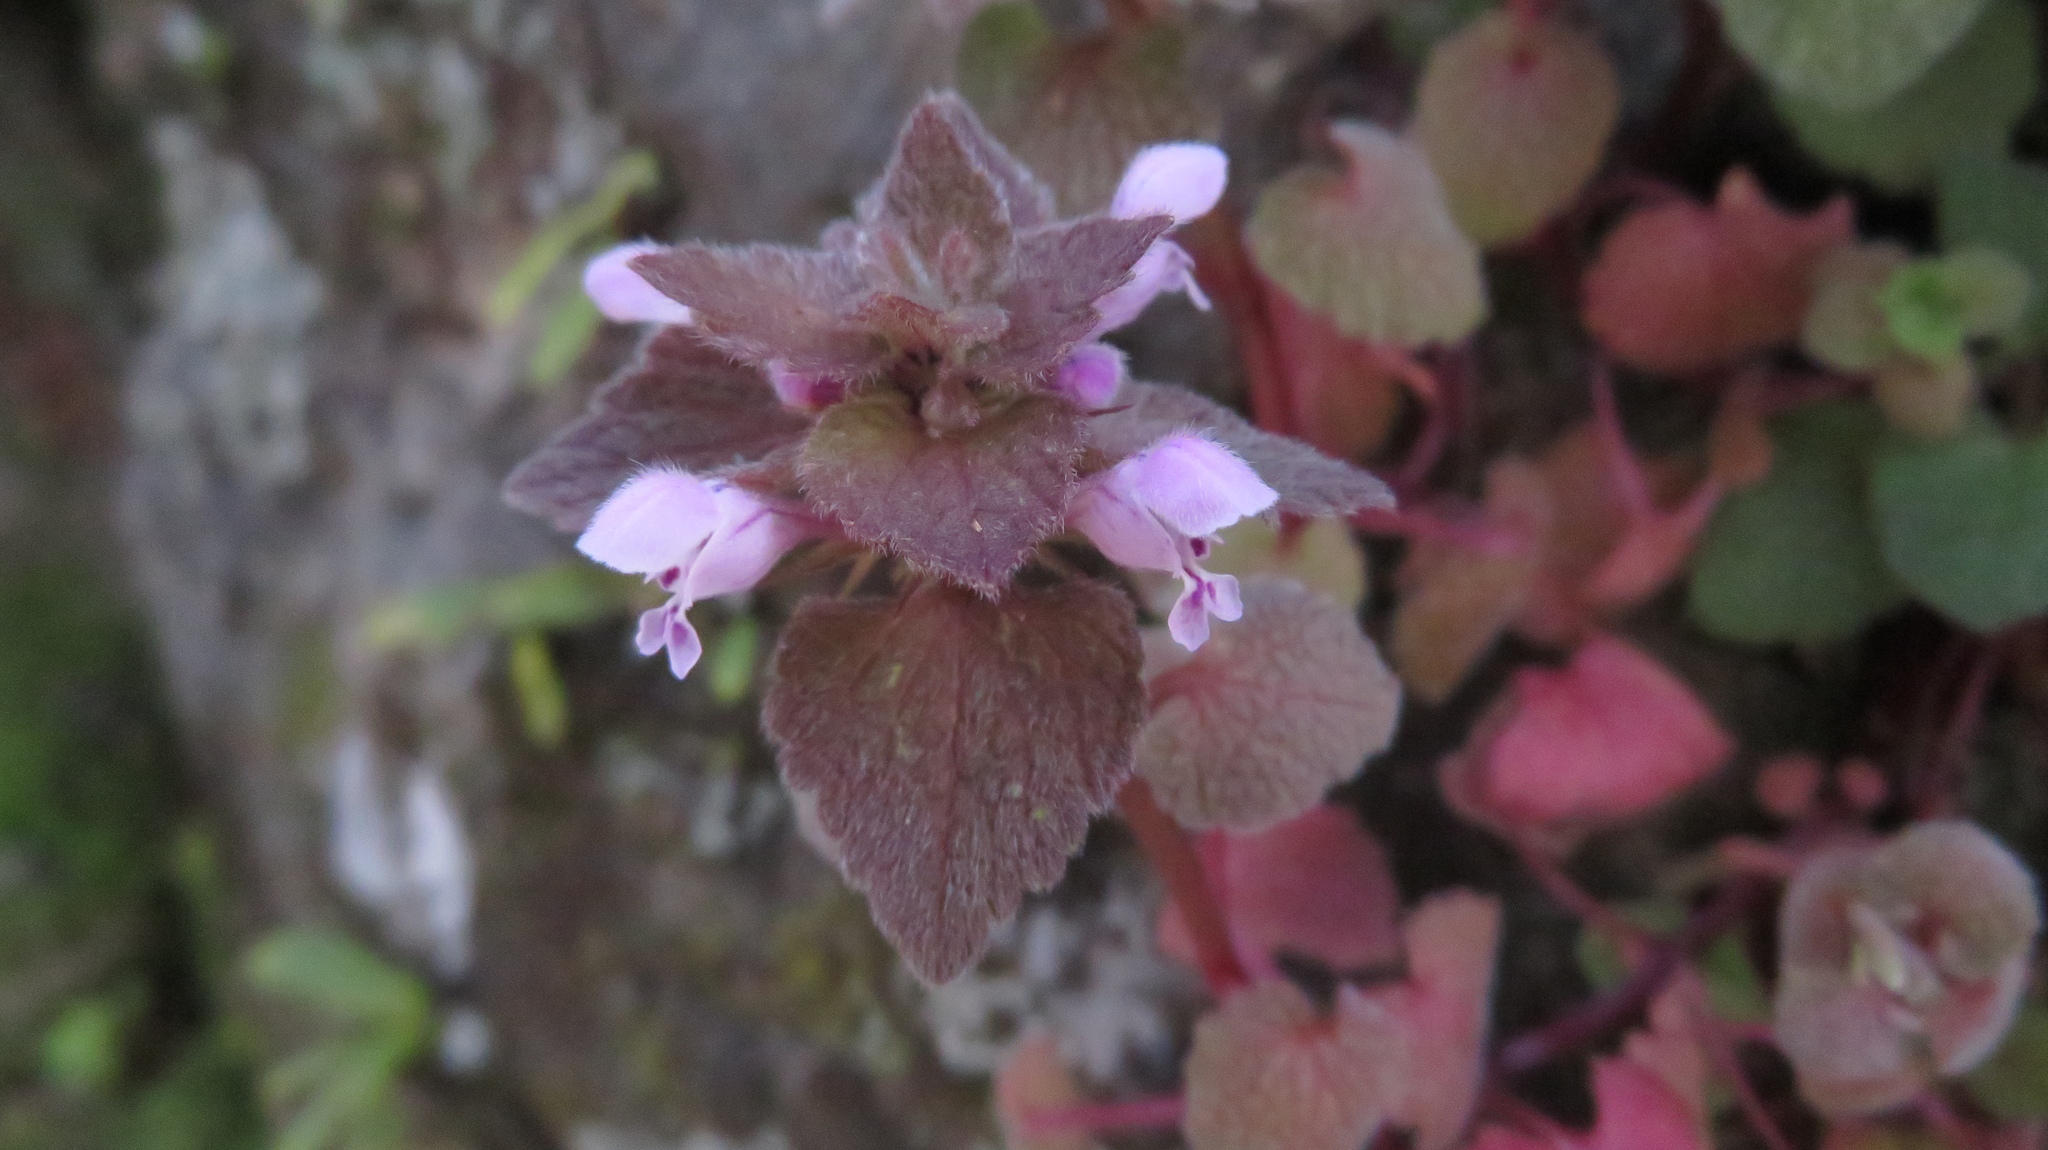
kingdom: Plantae
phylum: Tracheophyta
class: Magnoliopsida
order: Lamiales
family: Lamiaceae
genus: Lamium
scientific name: Lamium purpureum
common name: Red dead-nettle
